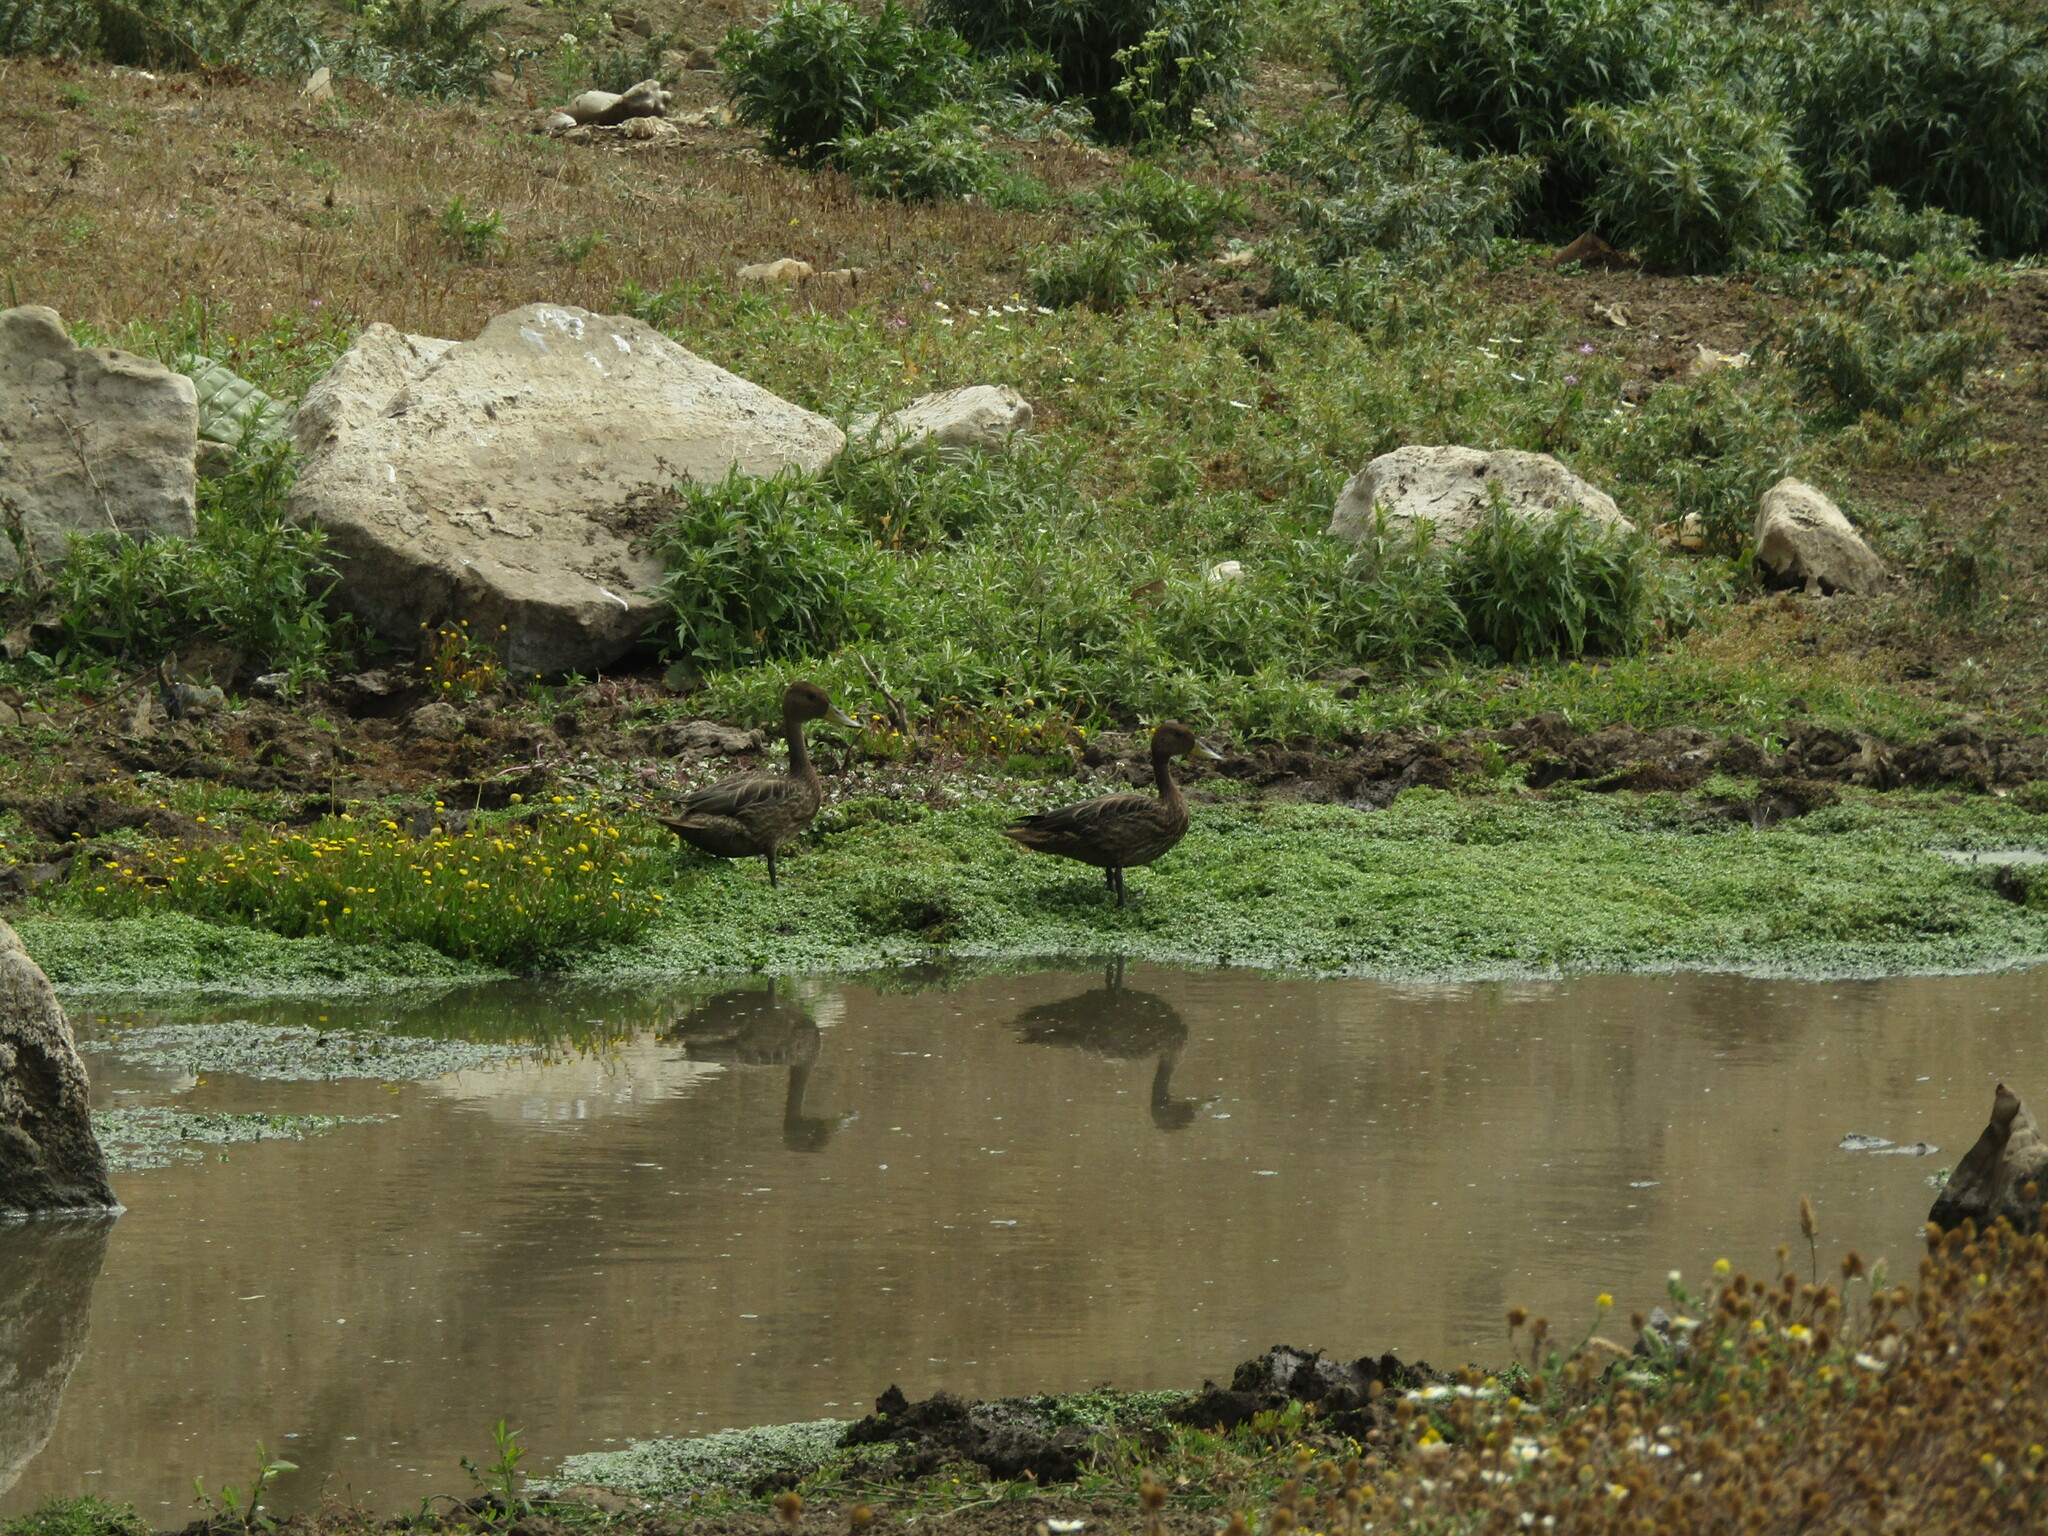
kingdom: Animalia
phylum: Chordata
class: Aves
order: Anseriformes
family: Anatidae
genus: Anas
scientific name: Anas georgica
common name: Yellow-billed pintail
